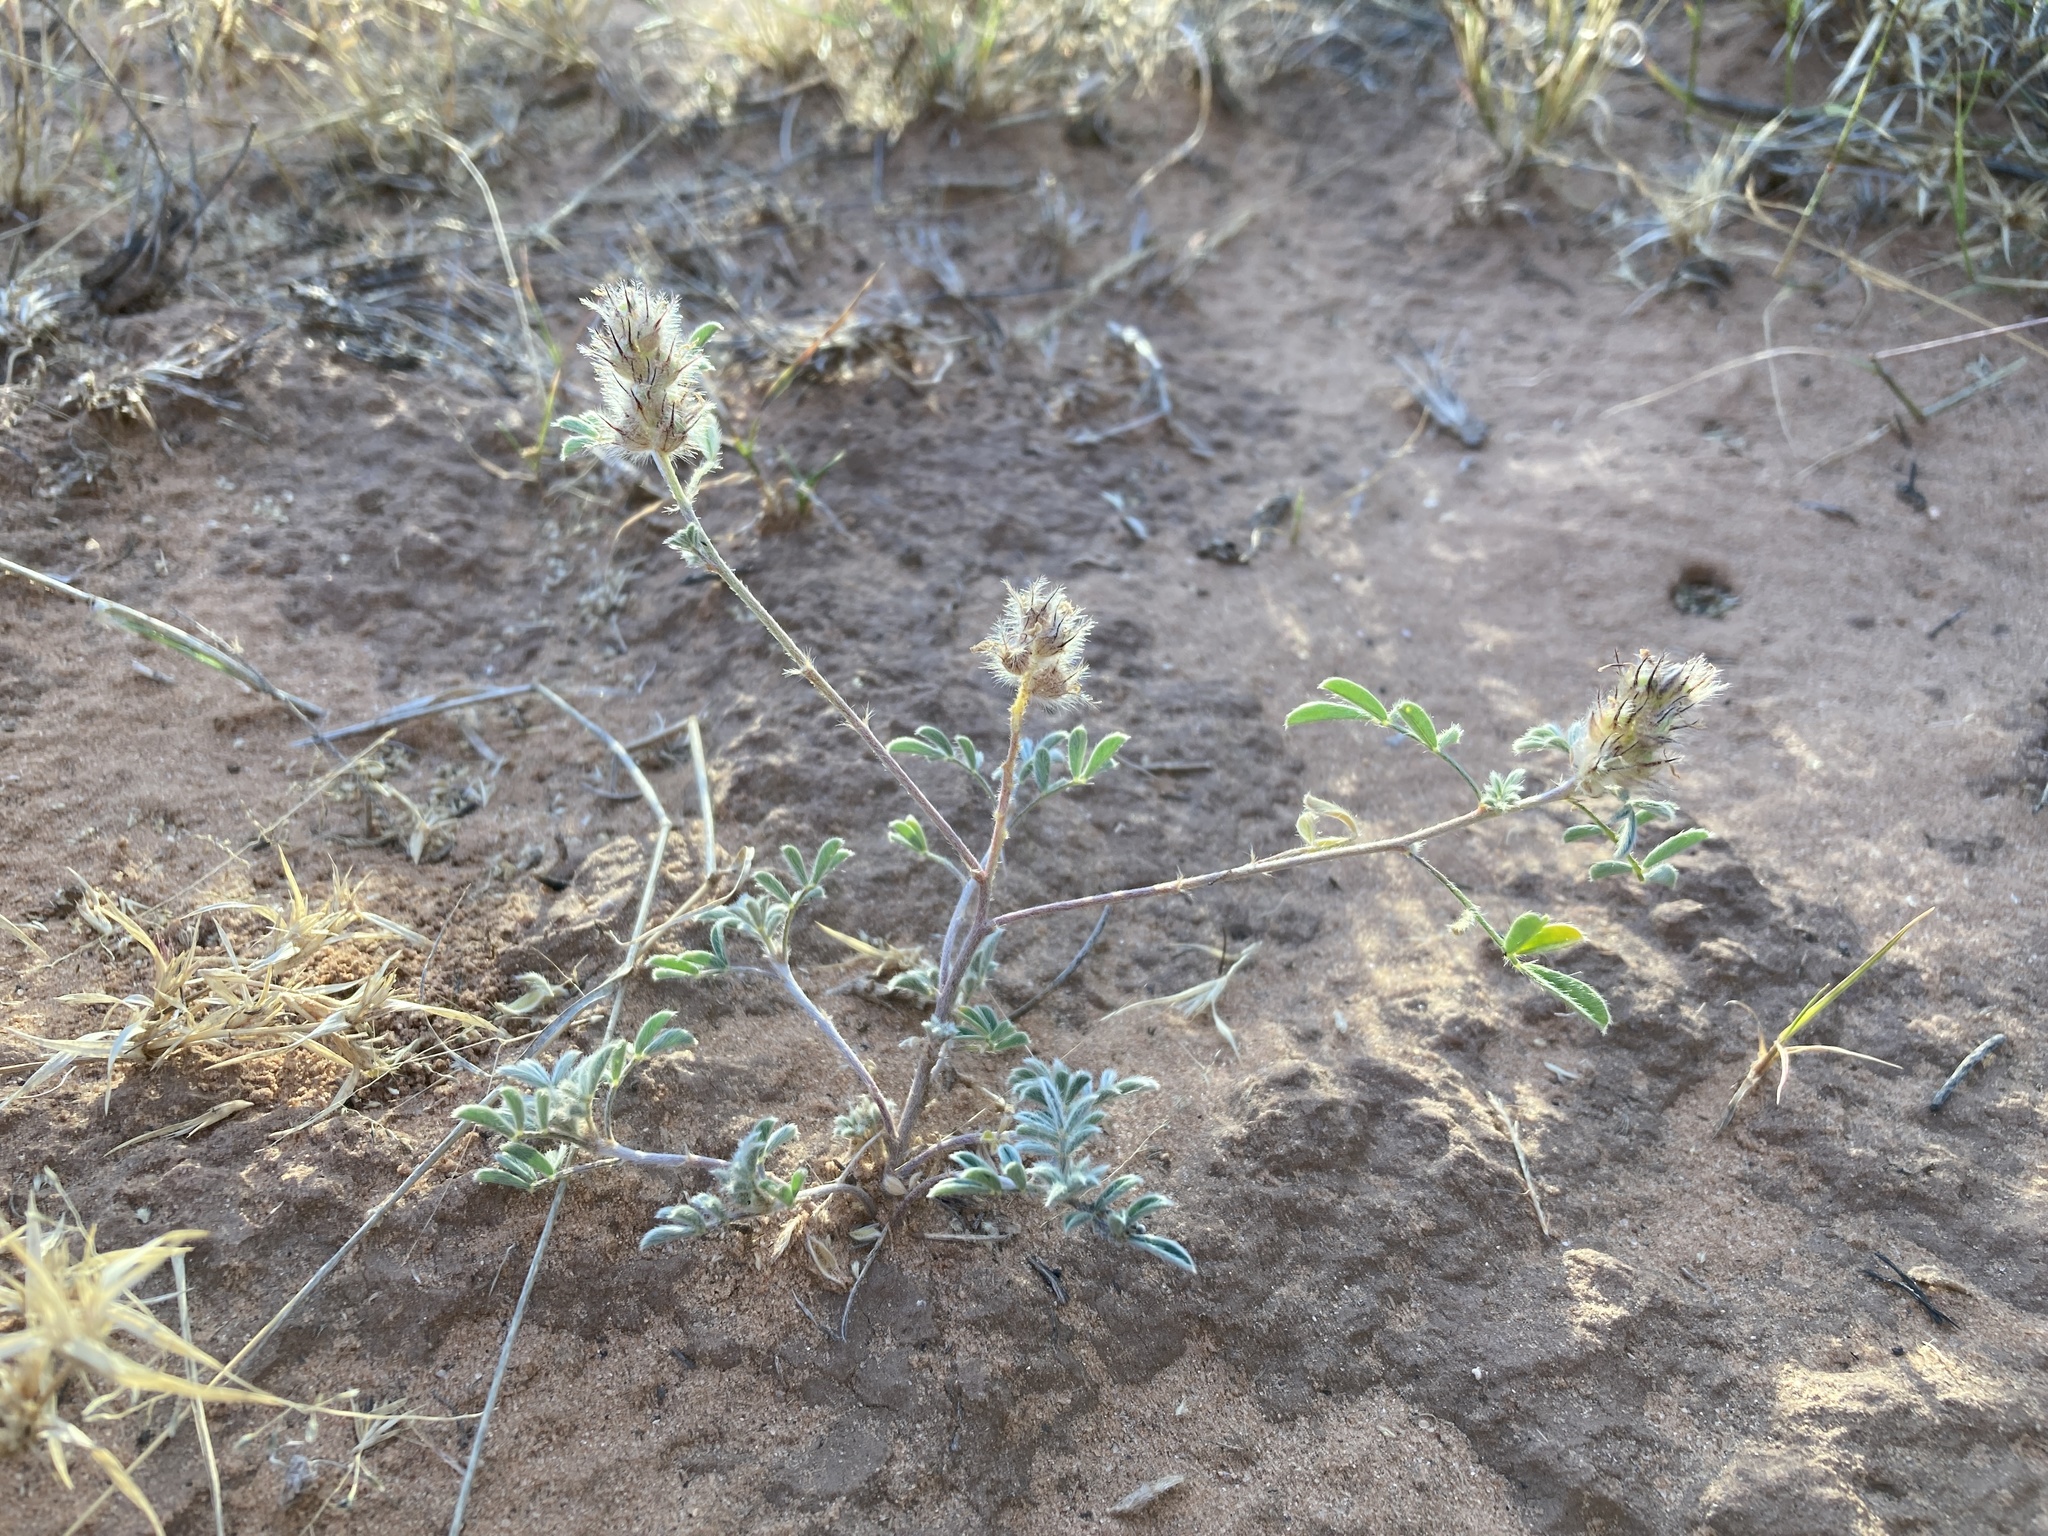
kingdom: Plantae
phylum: Tracheophyta
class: Magnoliopsida
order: Fabales
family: Fabaceae
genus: Dalea
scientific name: Dalea nana
